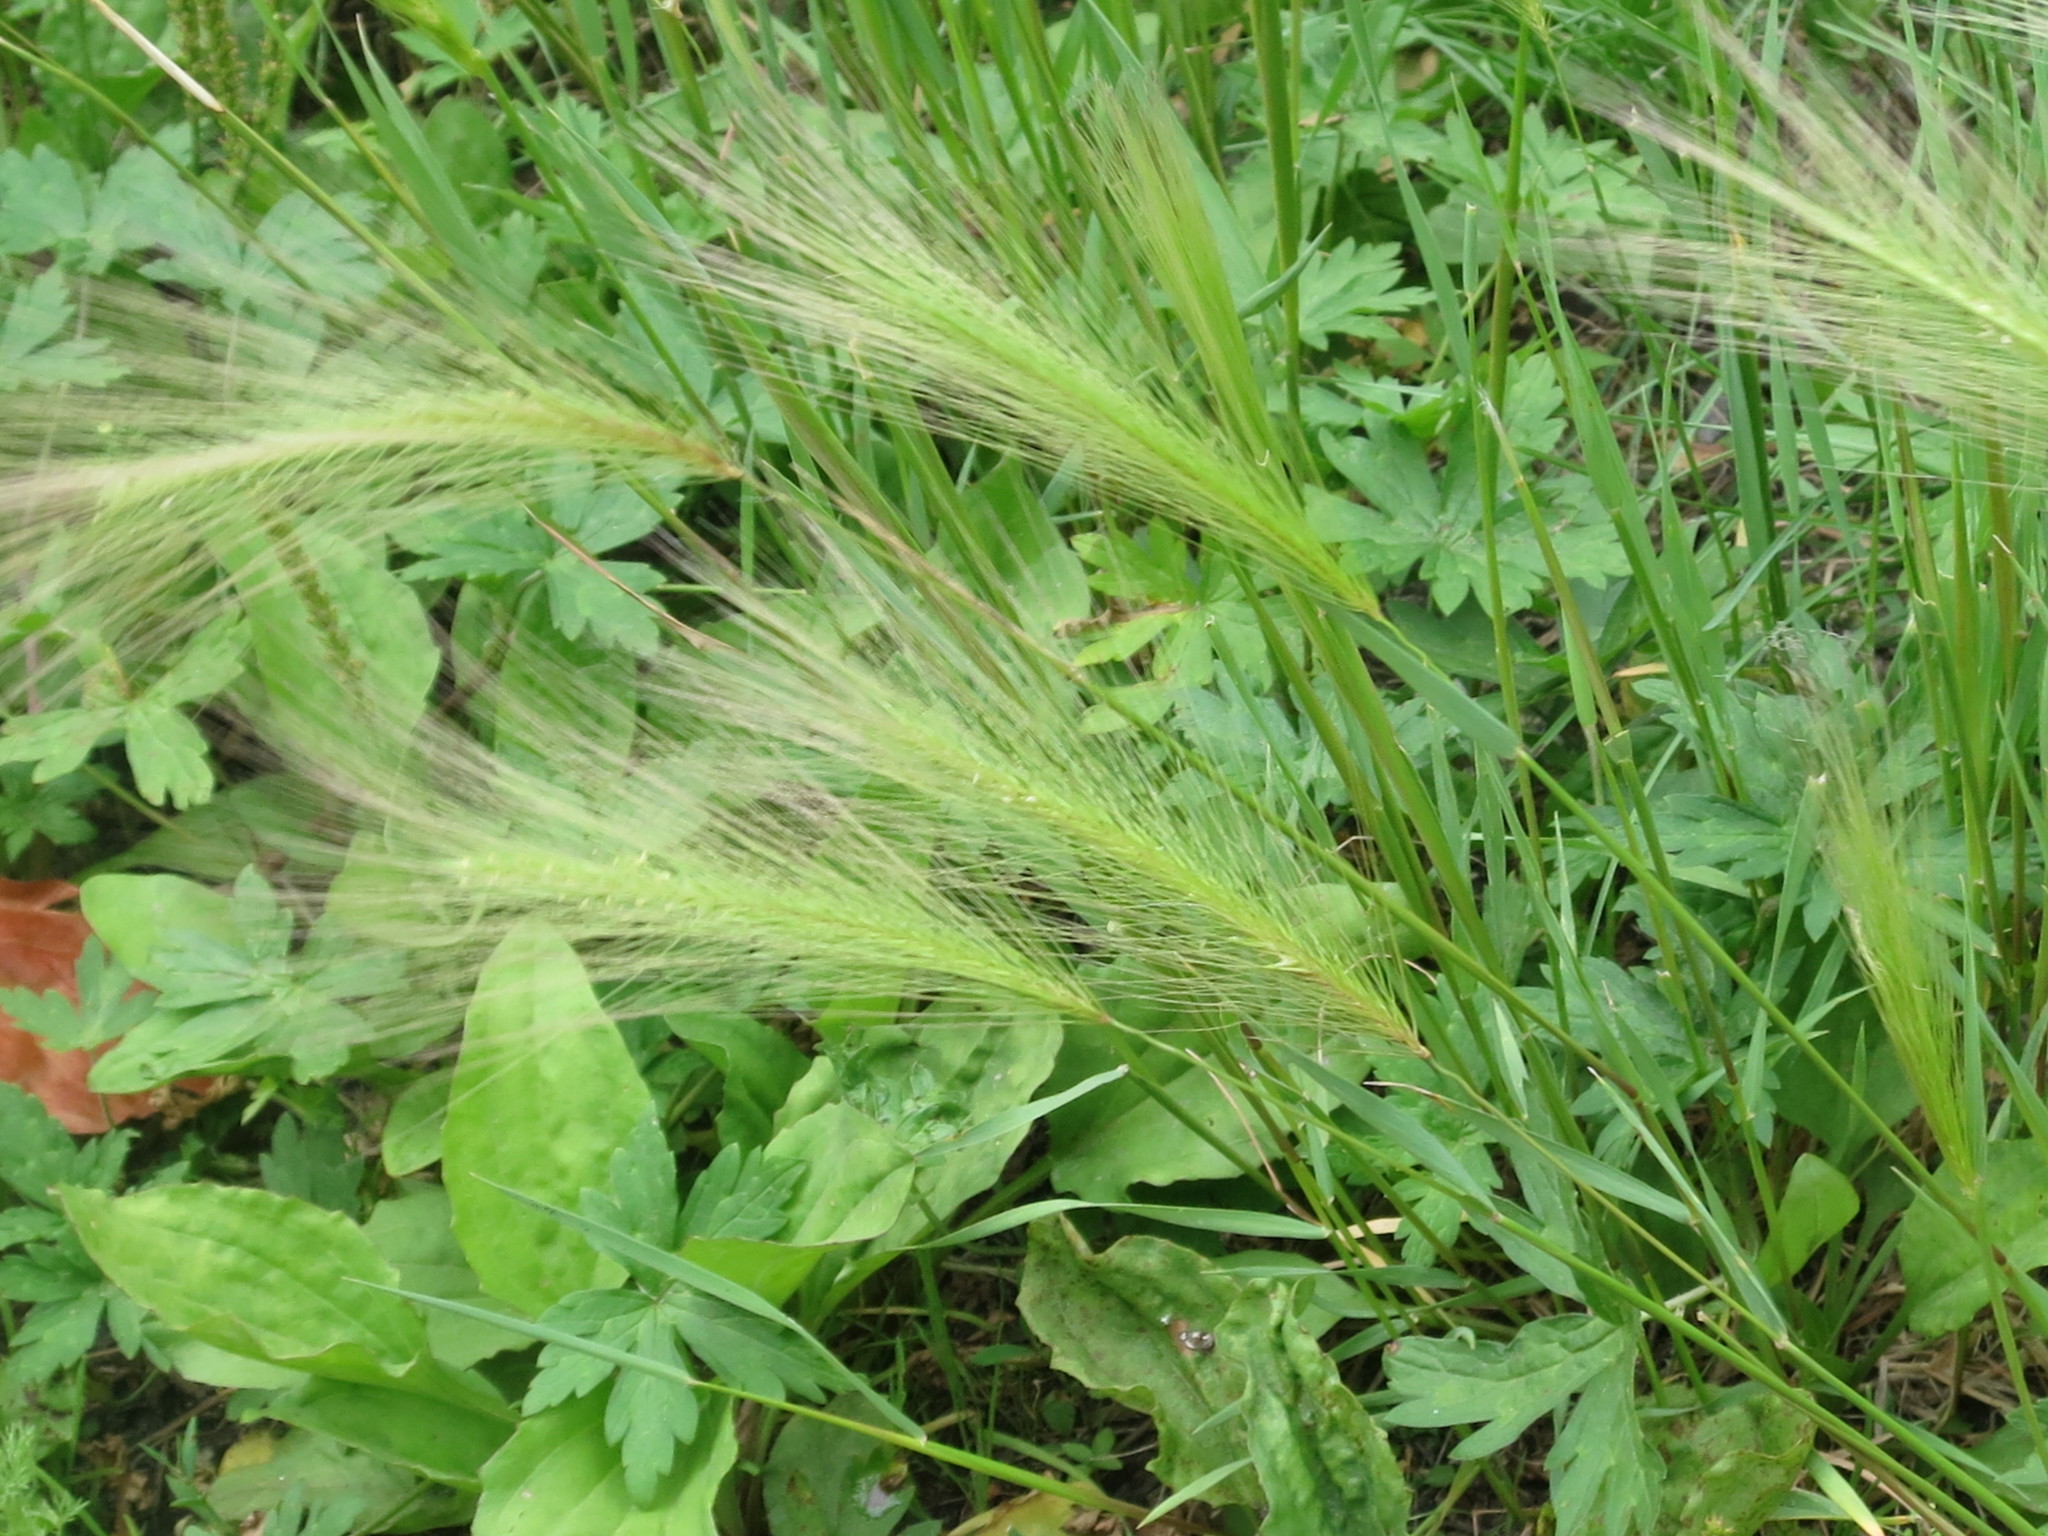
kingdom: Plantae
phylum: Tracheophyta
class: Liliopsida
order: Poales
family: Poaceae
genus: Hordeum
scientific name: Hordeum jubatum
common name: Foxtail barley
